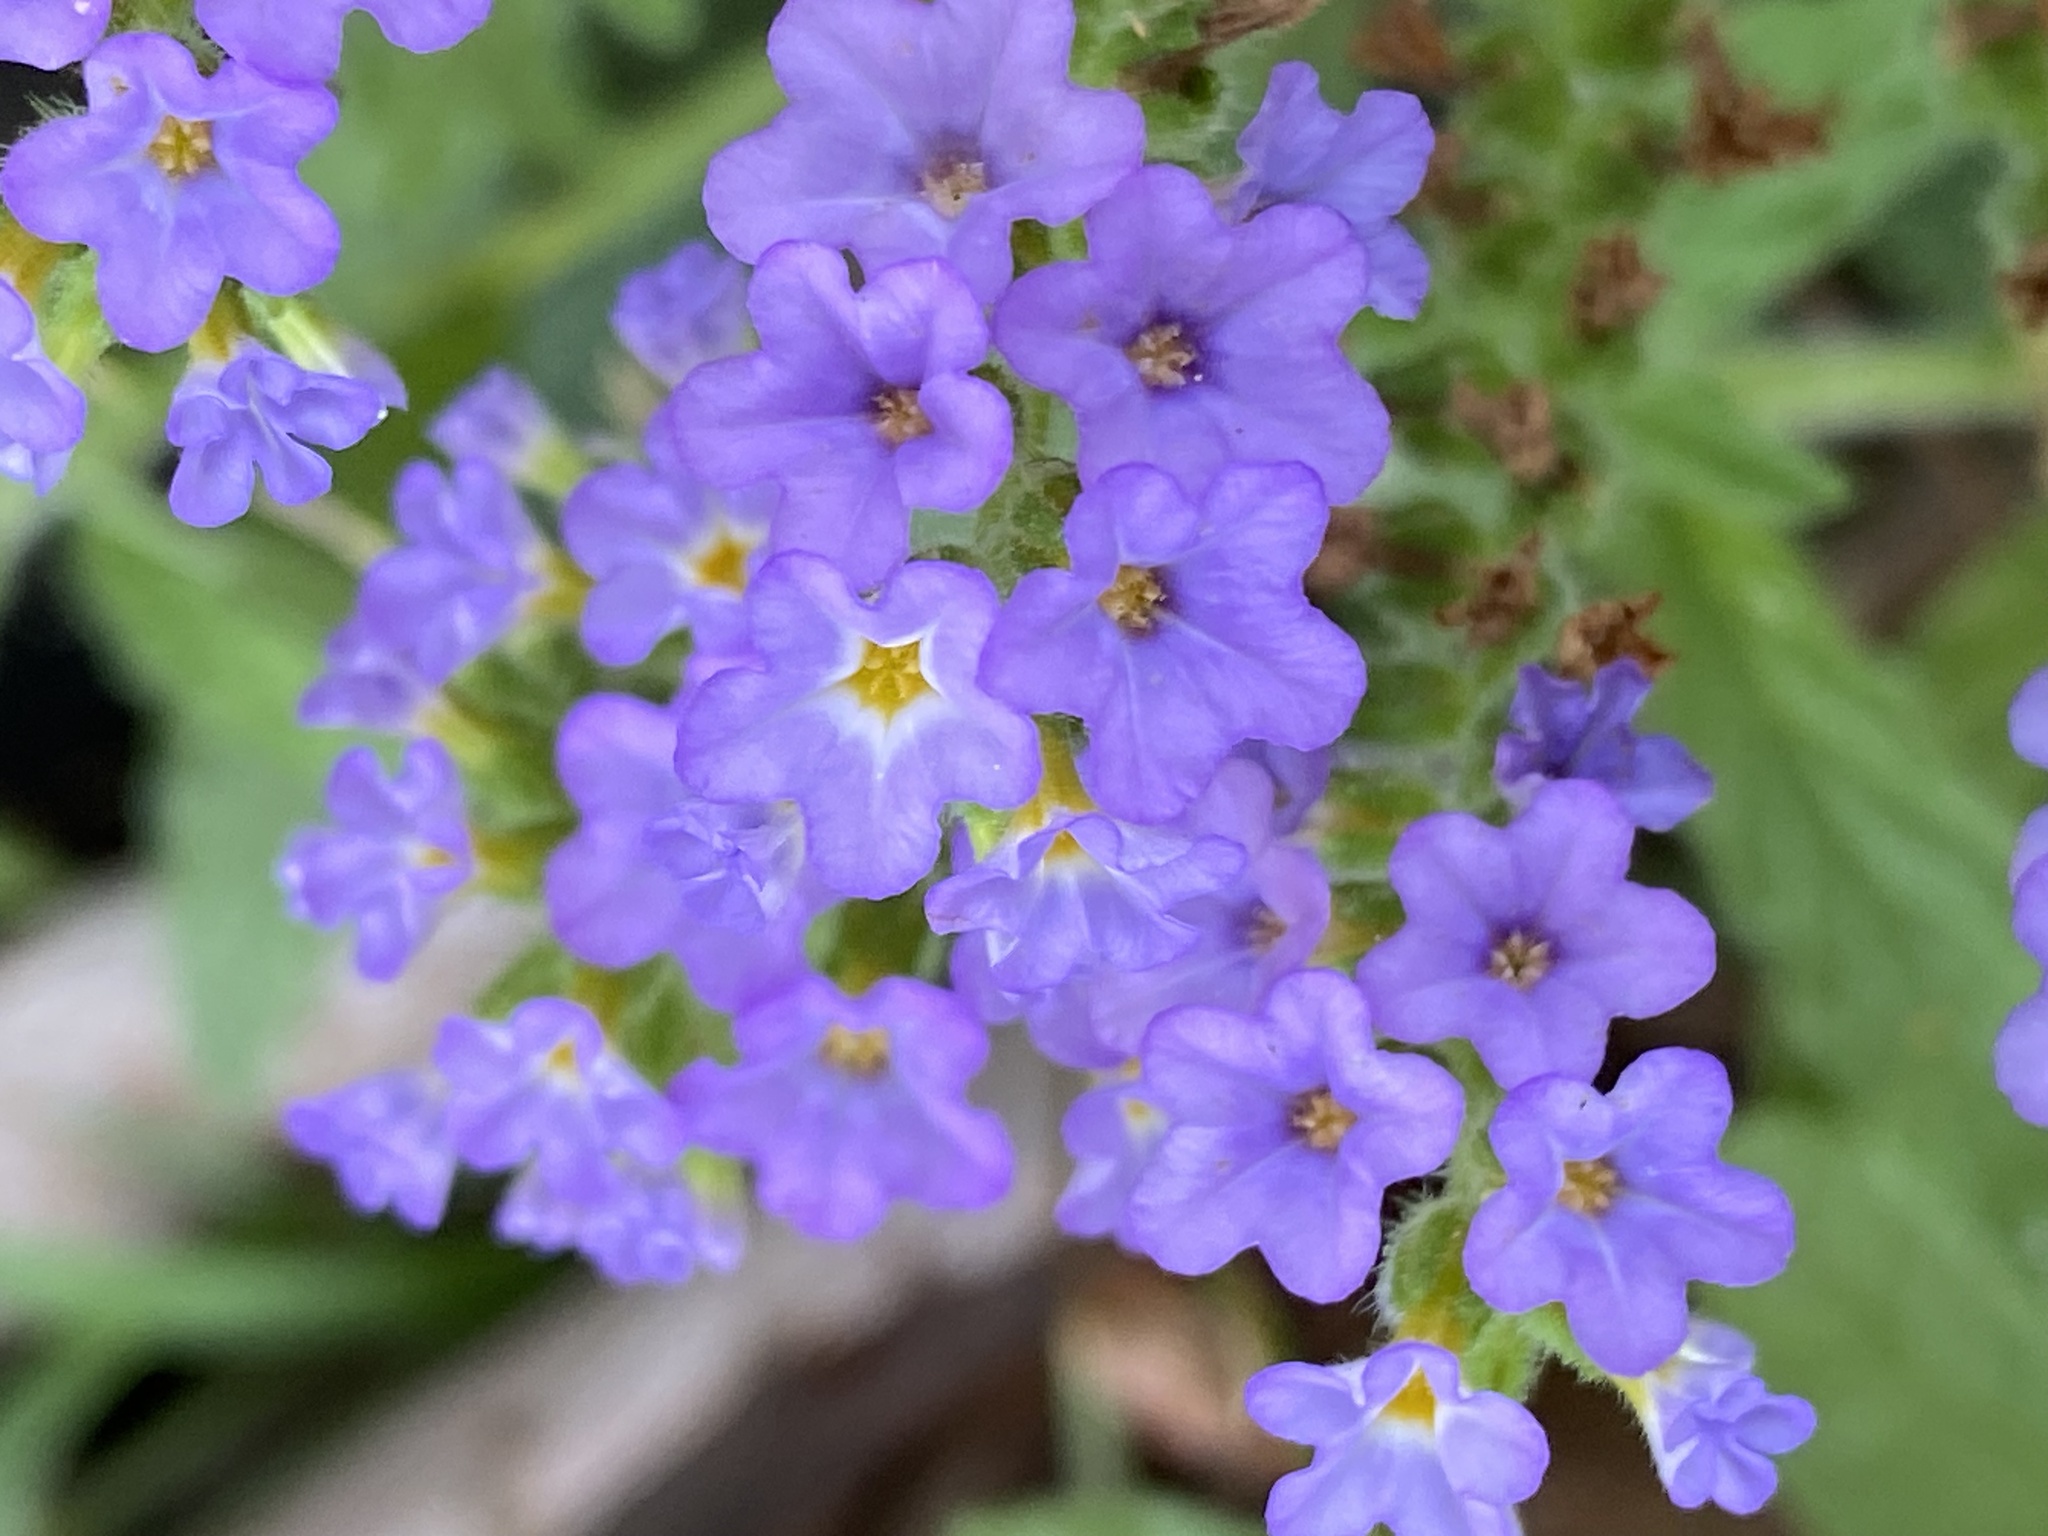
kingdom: Plantae
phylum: Tracheophyta
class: Magnoliopsida
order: Boraginales
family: Heliotropiaceae
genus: Heliotropium
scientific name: Heliotropium amplexicaule
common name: Clasping heliotrope
